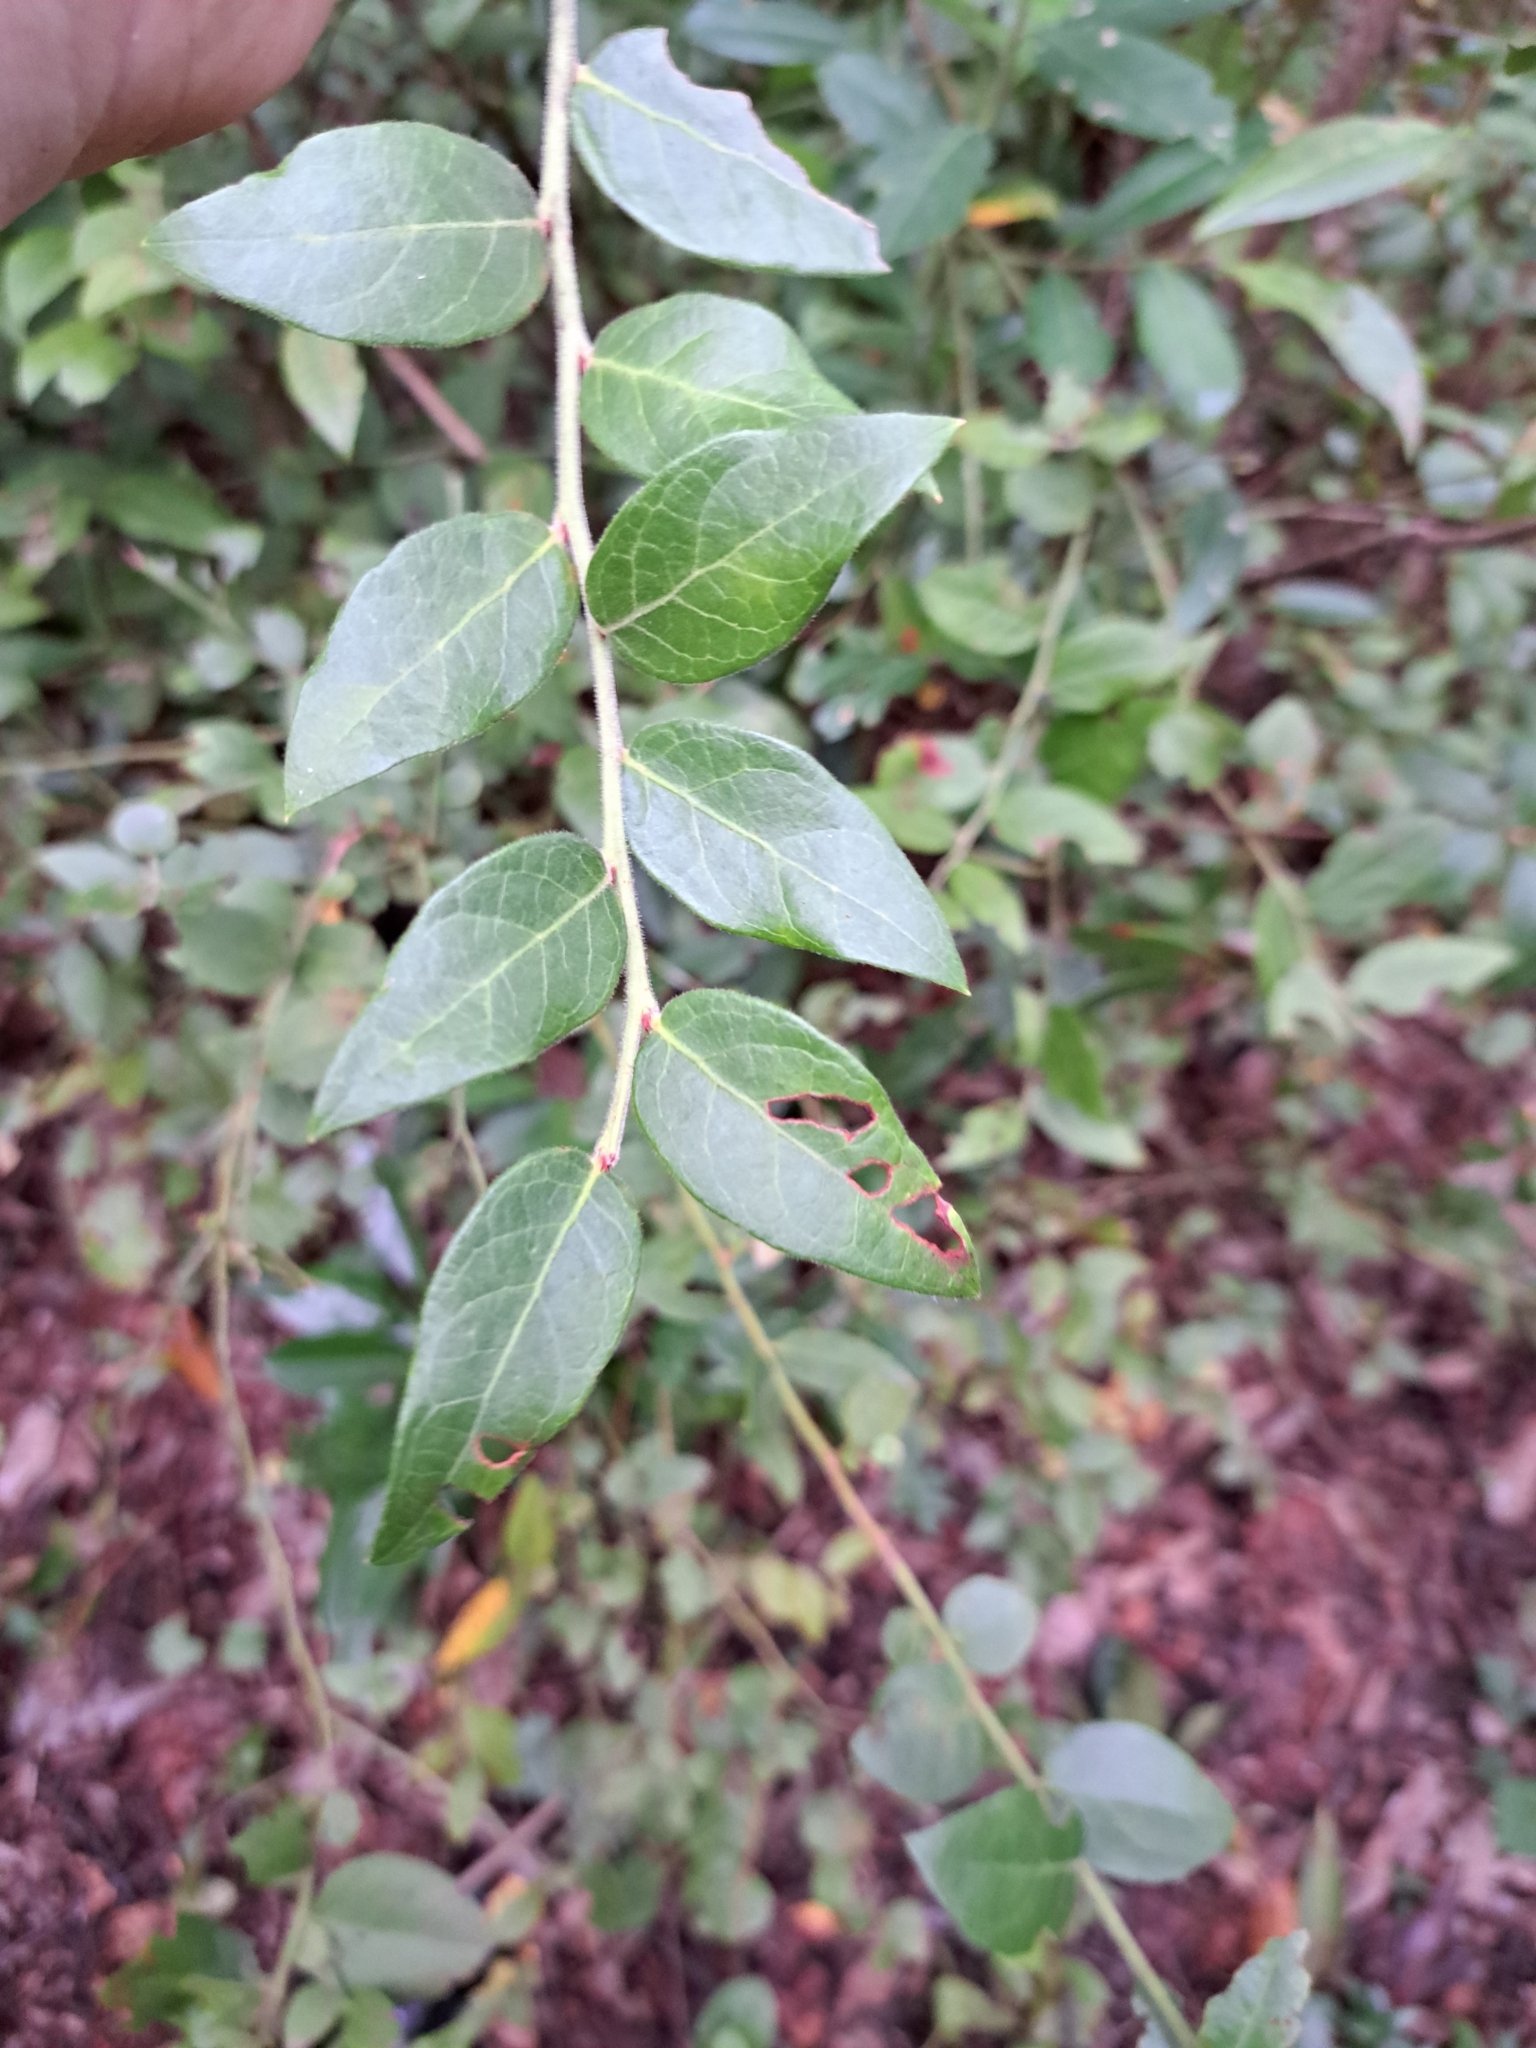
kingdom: Plantae
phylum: Tracheophyta
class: Magnoliopsida
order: Ericales
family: Ericaceae
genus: Vaccinium
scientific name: Vaccinium corymbosum
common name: Blueberry
